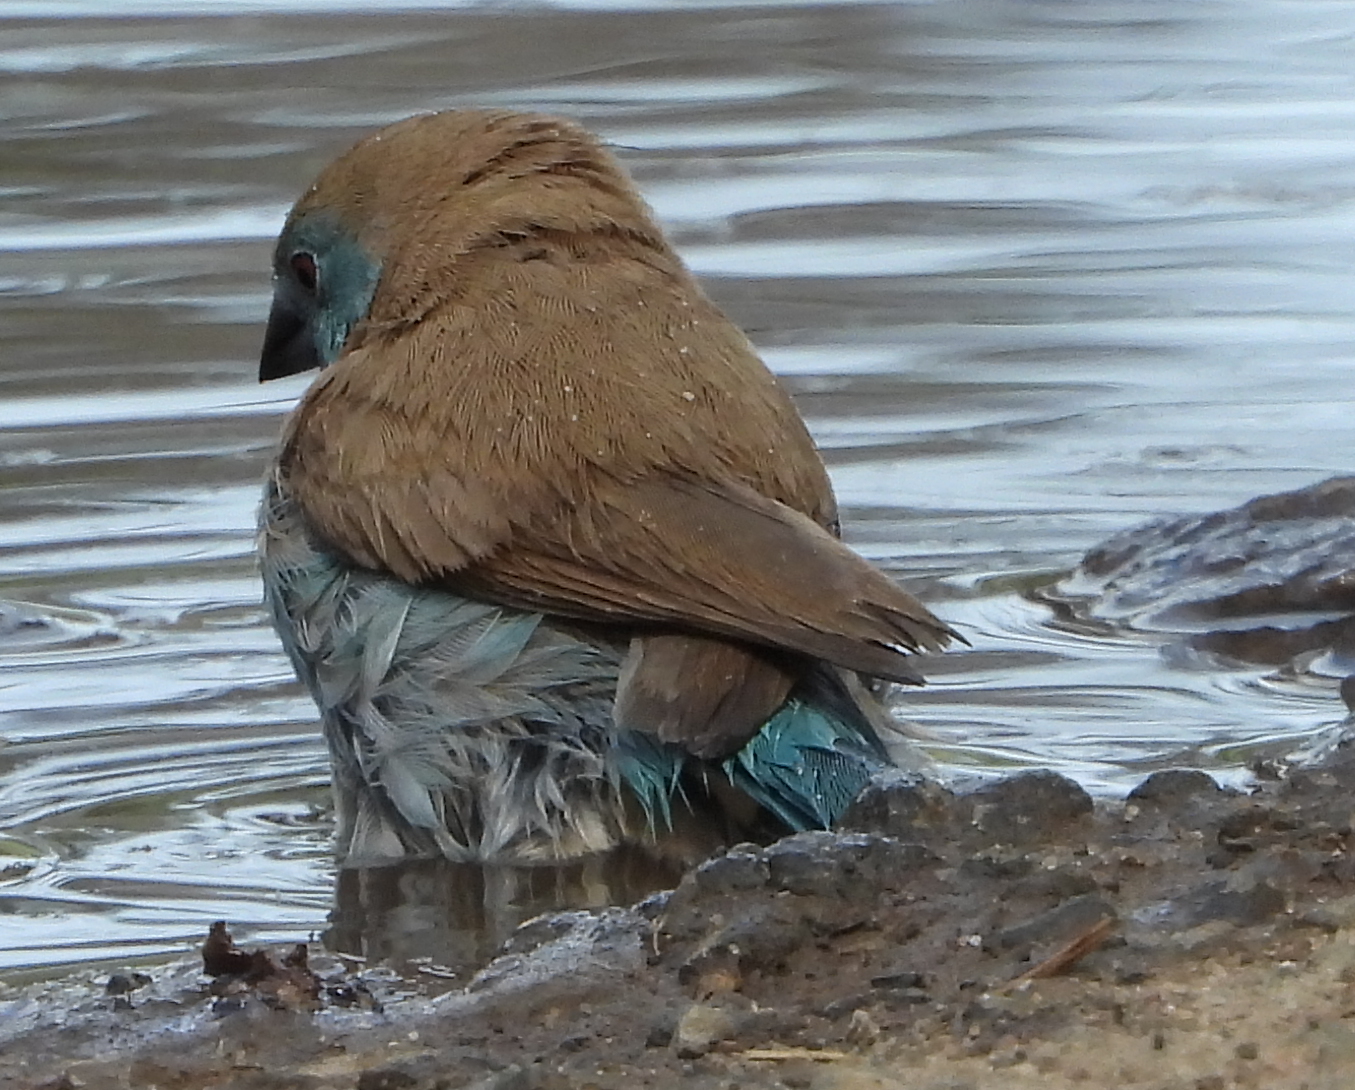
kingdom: Animalia
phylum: Chordata
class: Aves
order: Passeriformes
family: Estrildidae
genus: Uraeginthus
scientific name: Uraeginthus angolensis
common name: Blue waxbill
